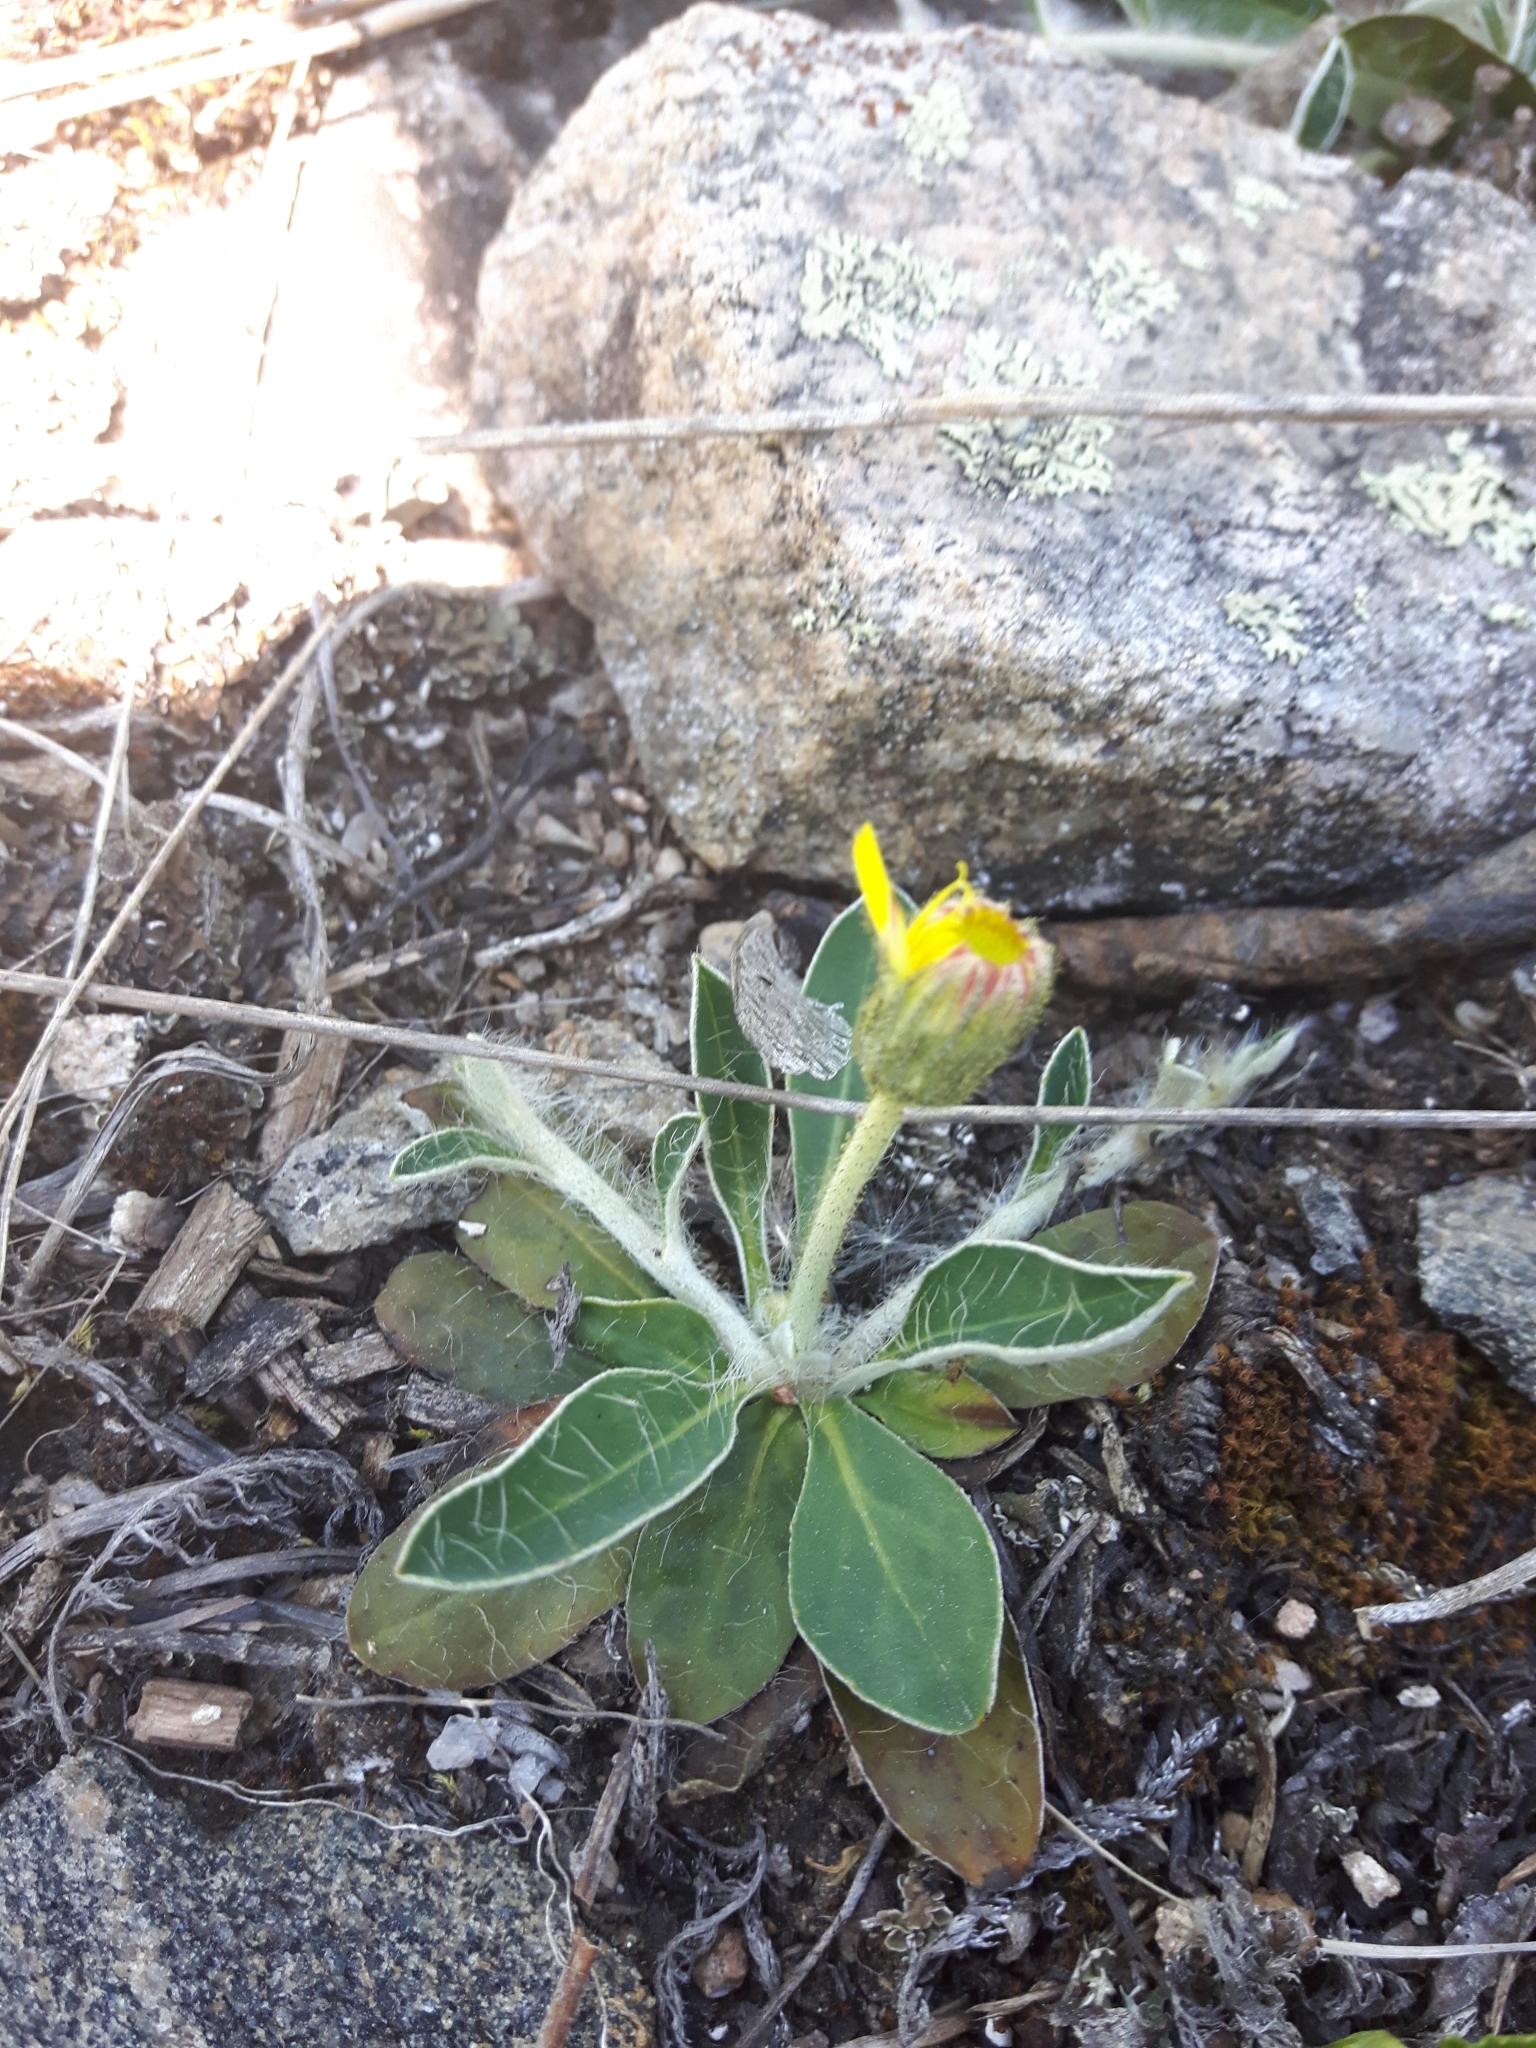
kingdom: Plantae
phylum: Tracheophyta
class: Magnoliopsida
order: Asterales
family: Asteraceae
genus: Pilosella
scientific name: Pilosella officinarum
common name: Mouse-ear hawkweed
